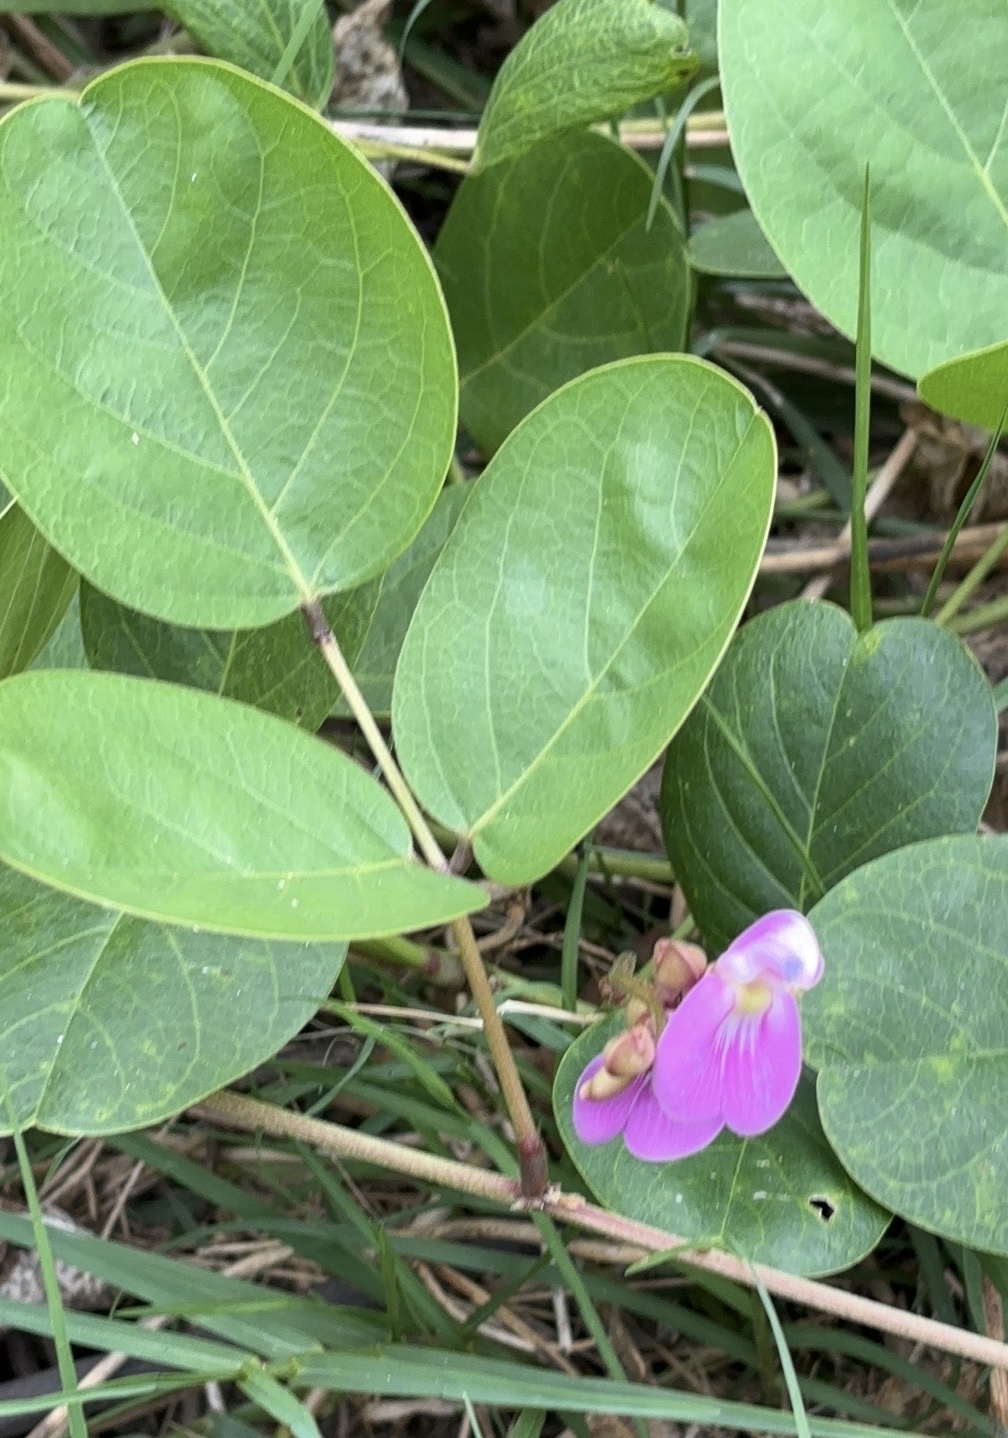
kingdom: Plantae
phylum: Tracheophyta
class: Magnoliopsida
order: Fabales
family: Fabaceae
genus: Canavalia
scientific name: Canavalia rosea
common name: Beach-bean
